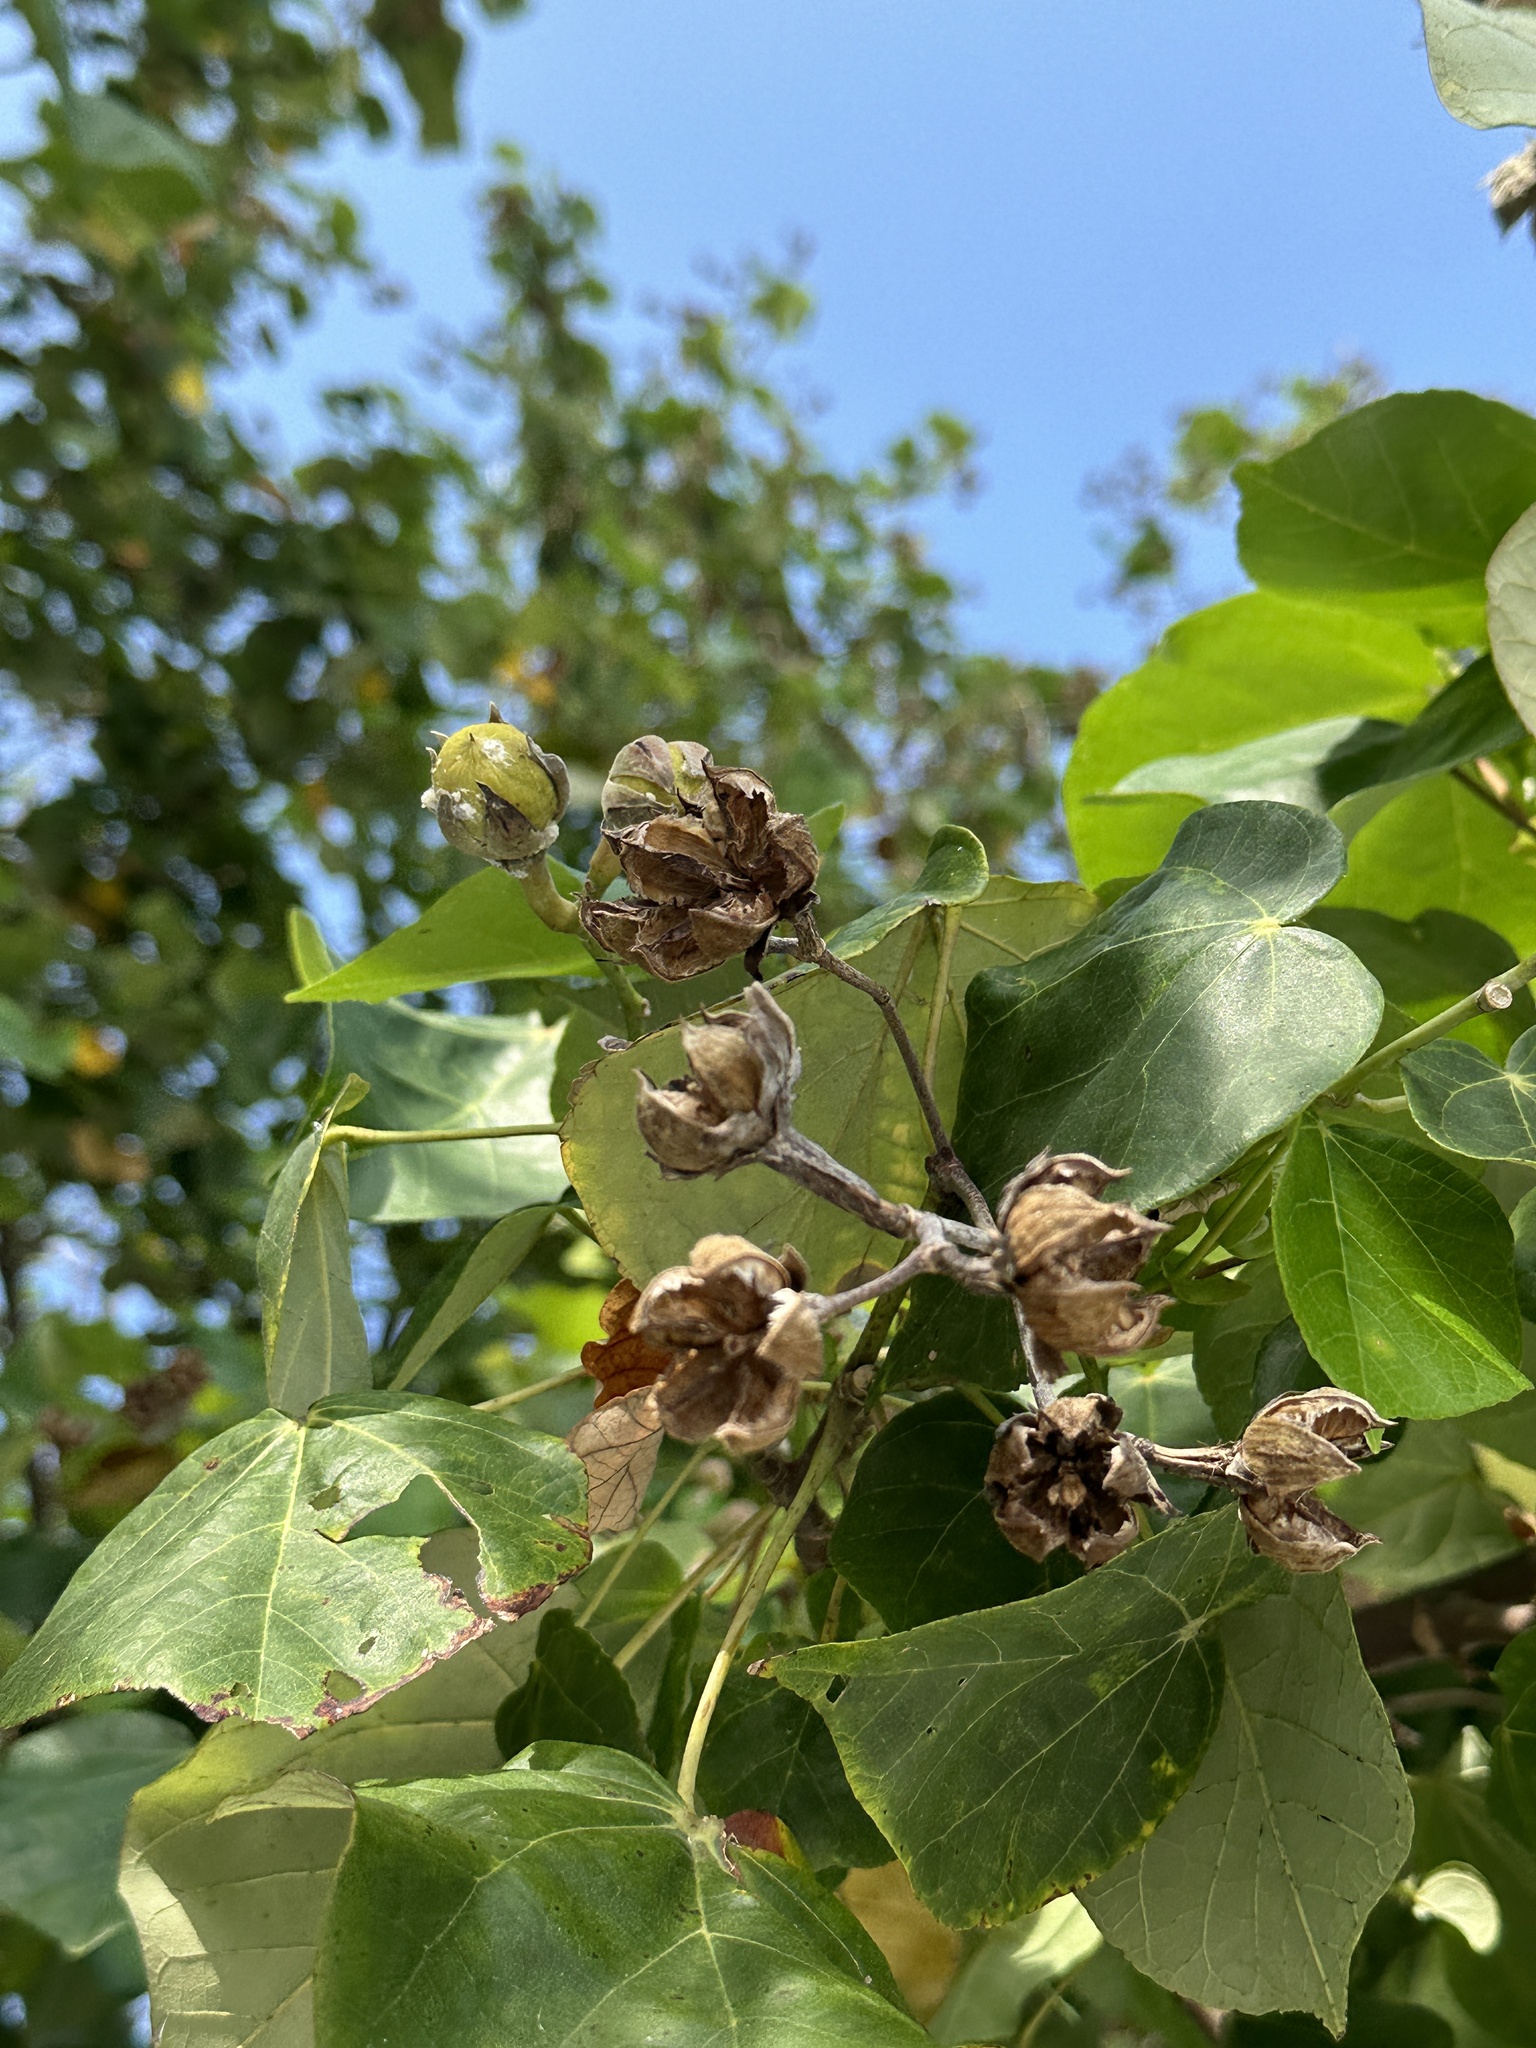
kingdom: Plantae
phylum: Tracheophyta
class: Magnoliopsida
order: Malvales
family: Malvaceae
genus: Talipariti
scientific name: Talipariti tiliaceum
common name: Sea hibiscus
